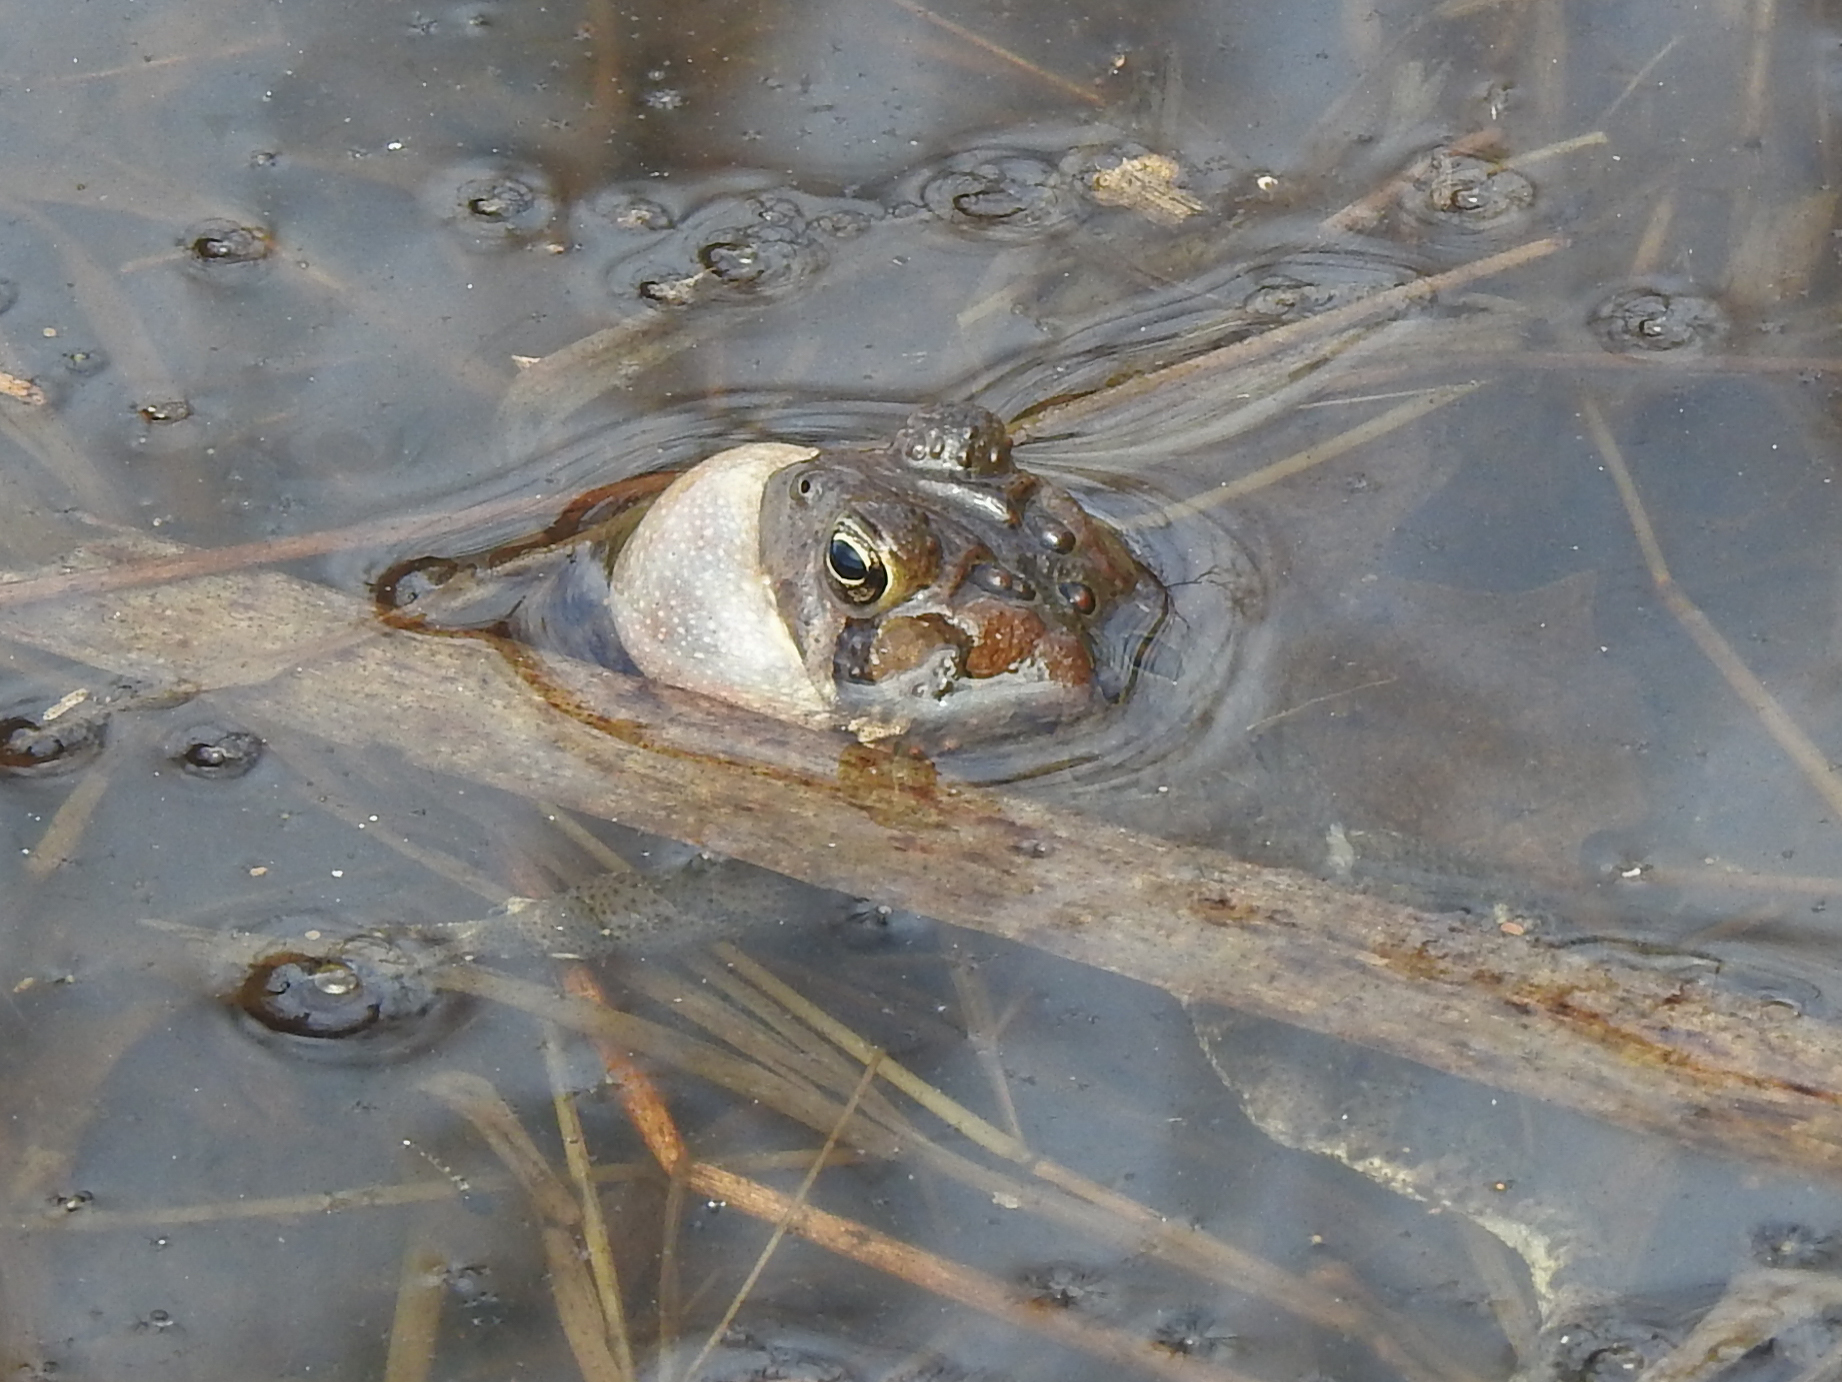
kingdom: Animalia
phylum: Chordata
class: Amphibia
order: Anura
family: Bufonidae
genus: Anaxyrus
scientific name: Anaxyrus americanus
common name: American toad
